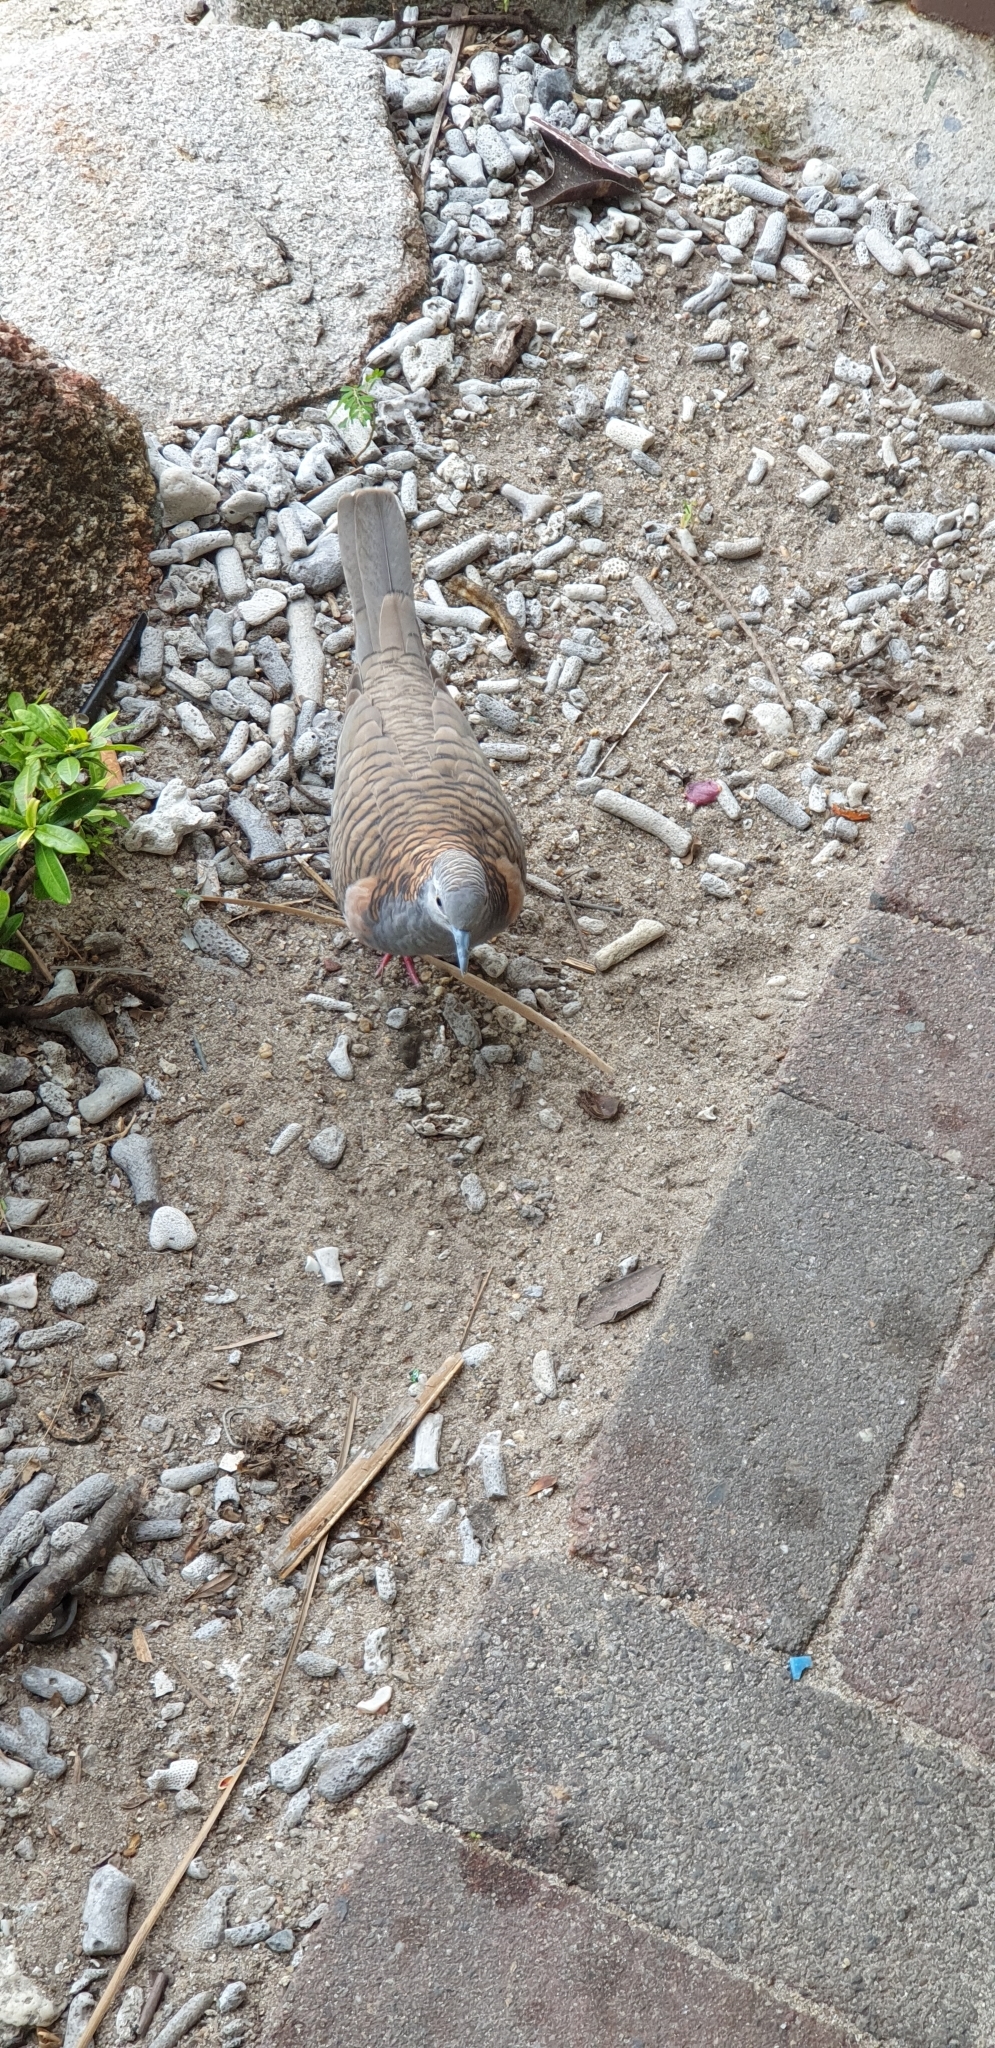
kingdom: Animalia
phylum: Chordata
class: Aves
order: Columbiformes
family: Columbidae
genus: Geopelia
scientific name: Geopelia humeralis
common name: Bar-shouldered dove
